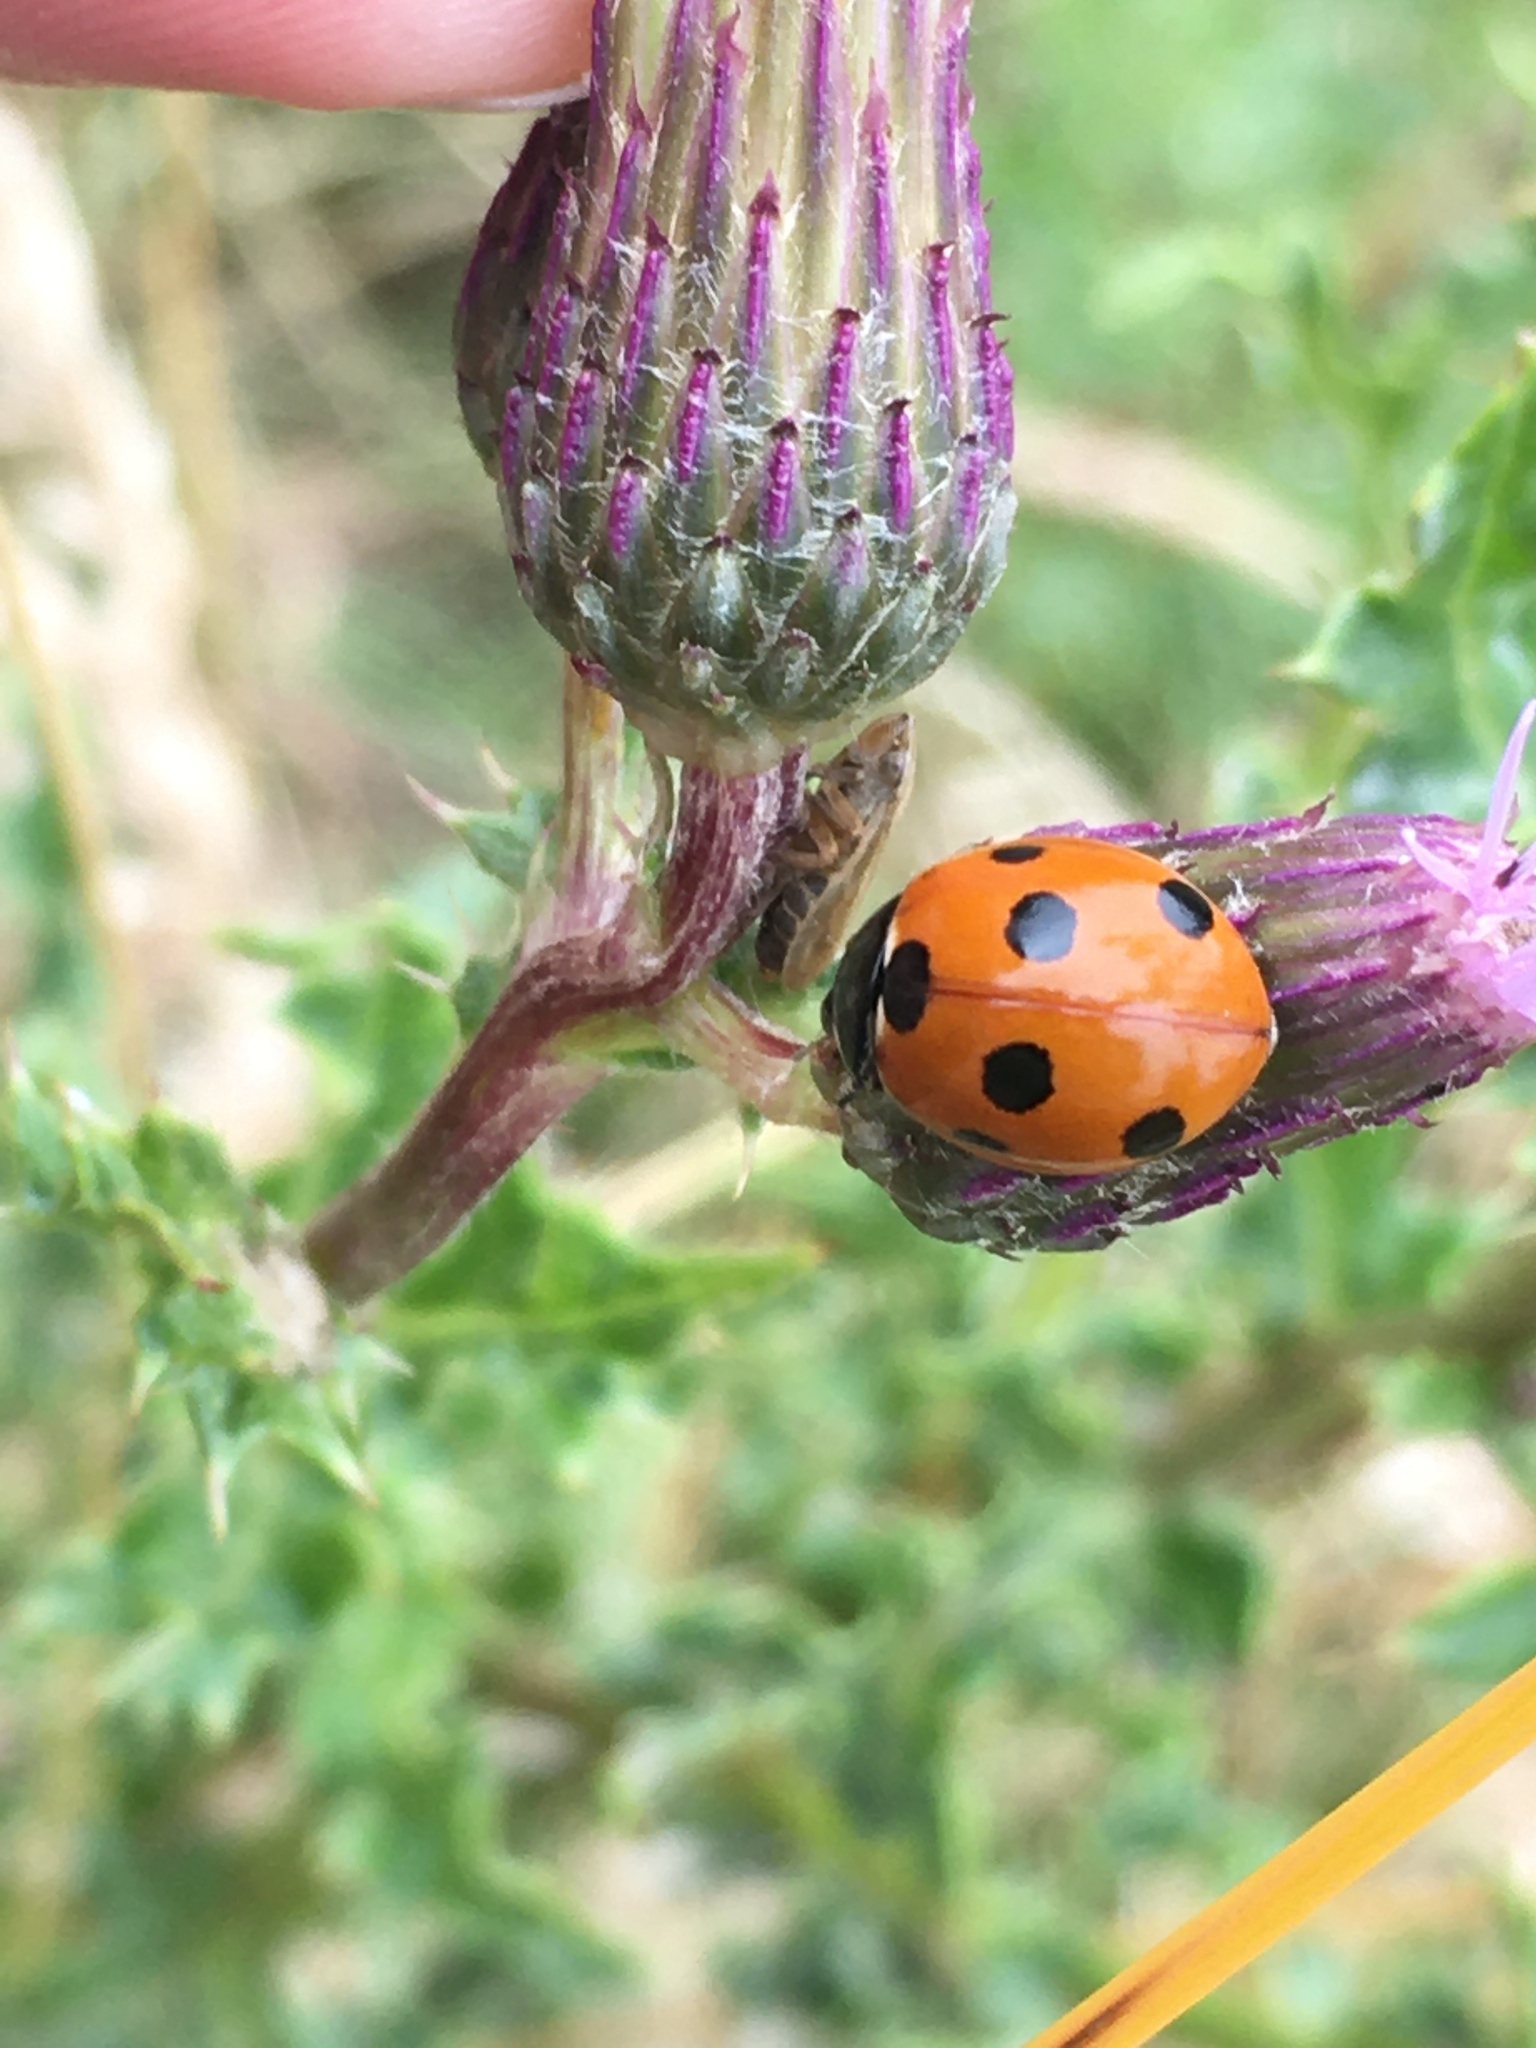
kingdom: Animalia
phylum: Arthropoda
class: Insecta
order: Coleoptera
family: Coccinellidae
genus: Coccinella
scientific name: Coccinella septempunctata
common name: Sevenspotted lady beetle
